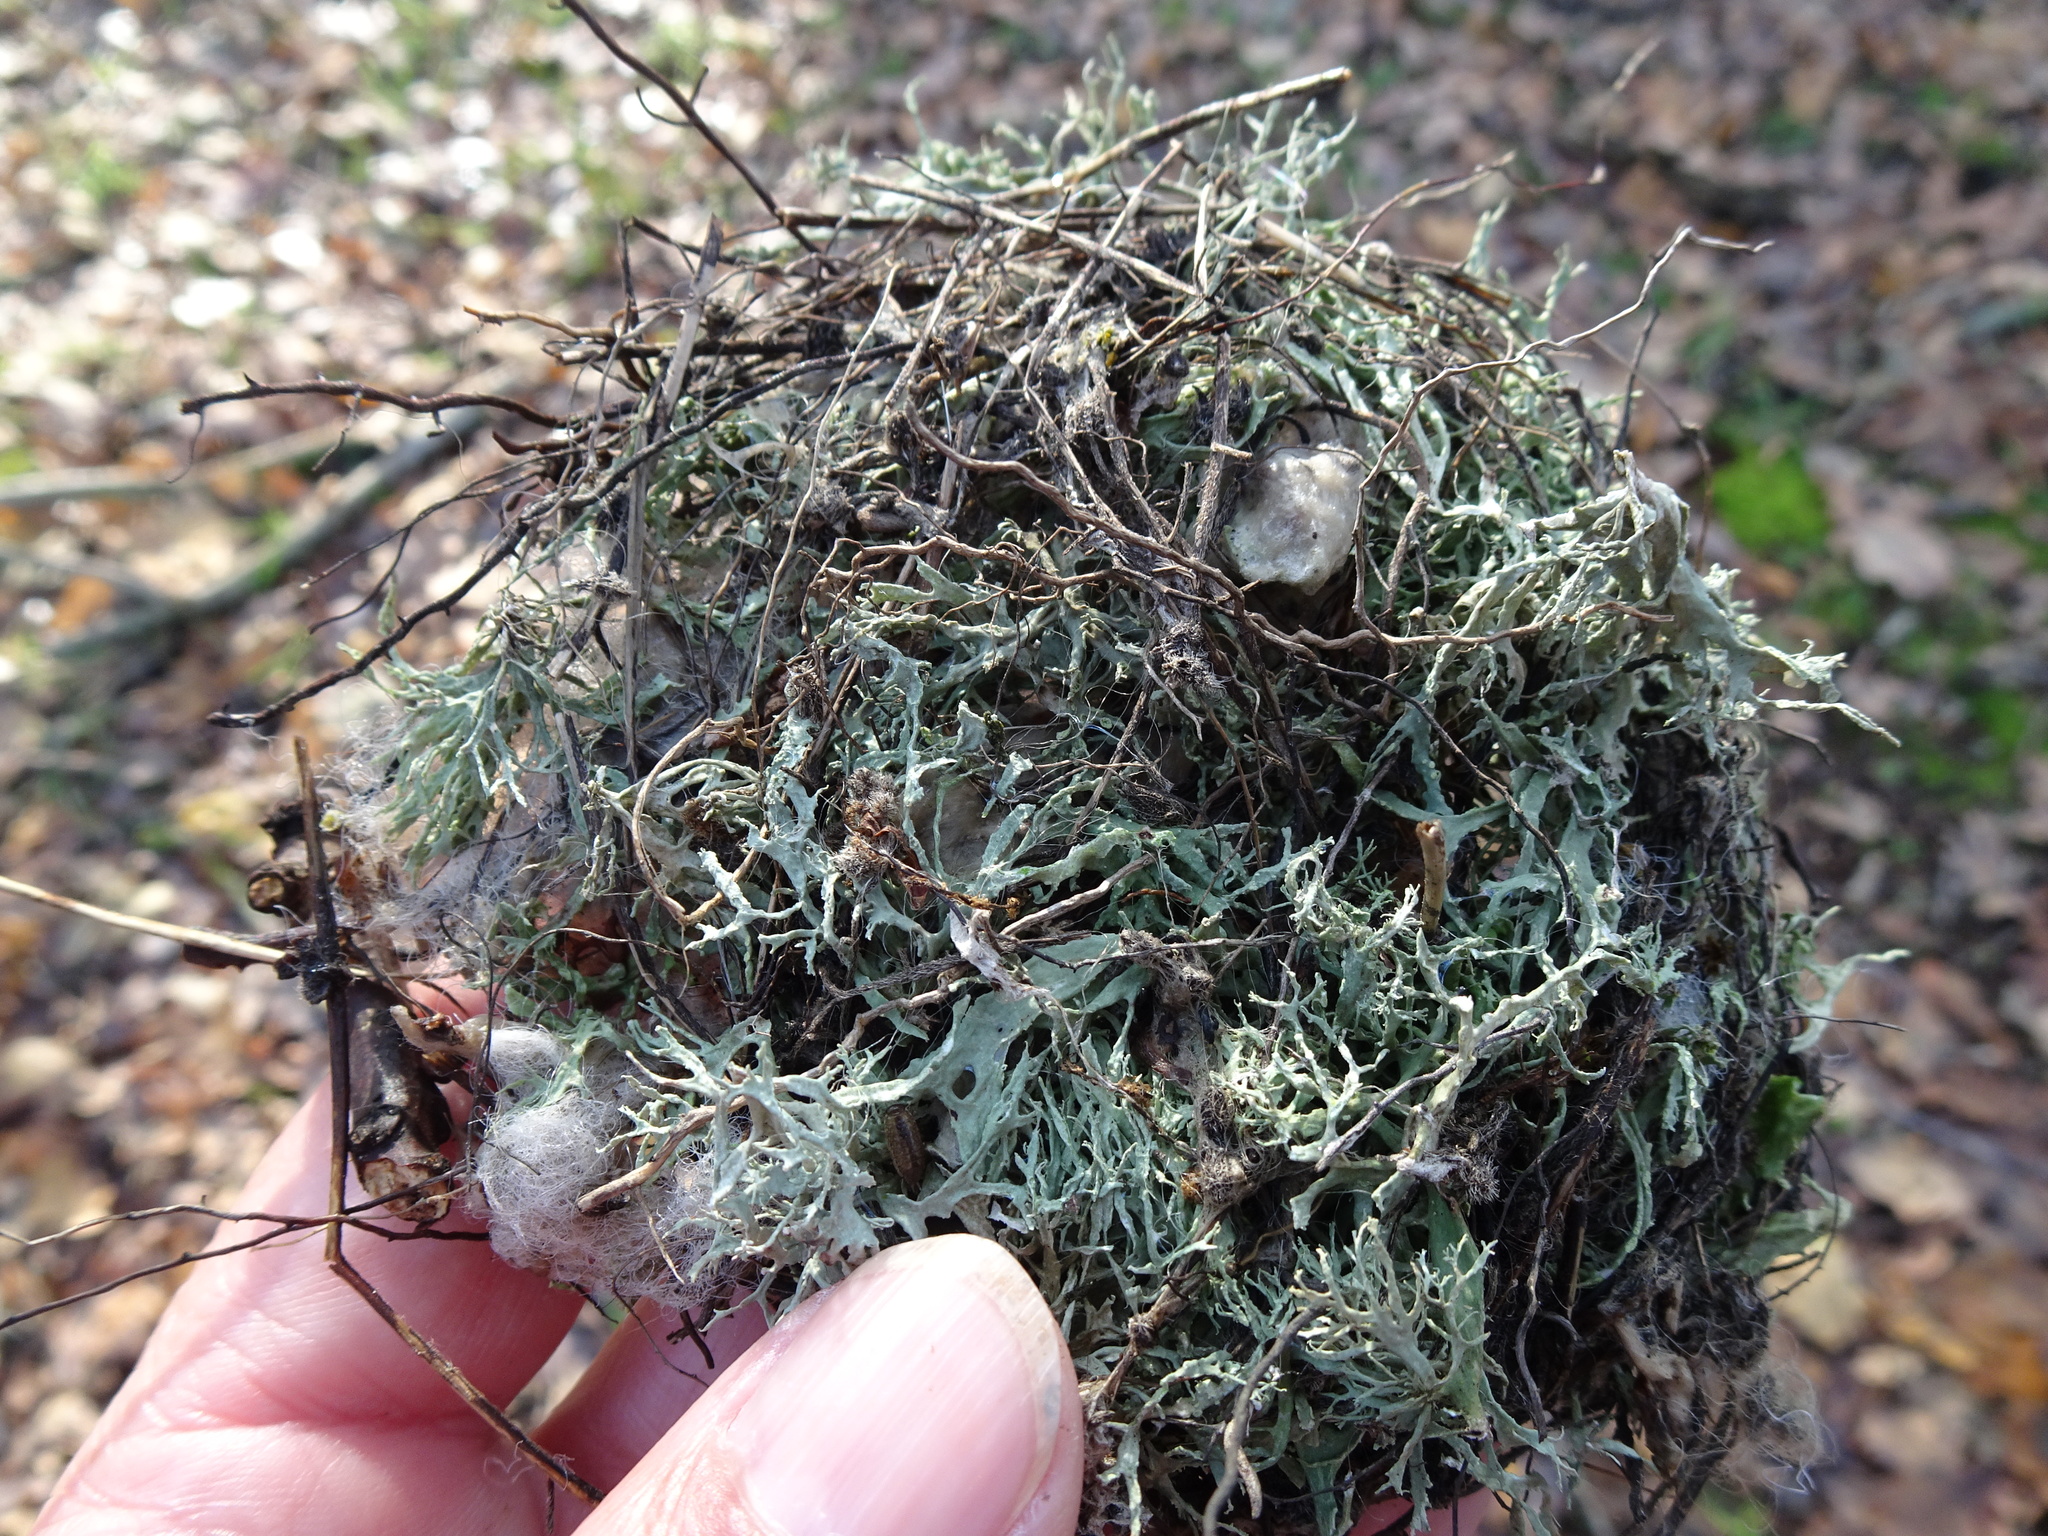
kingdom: Fungi
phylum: Ascomycota
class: Lecanoromycetes
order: Lecanorales
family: Parmeliaceae
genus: Evernia
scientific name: Evernia prunastri
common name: Oak moss
